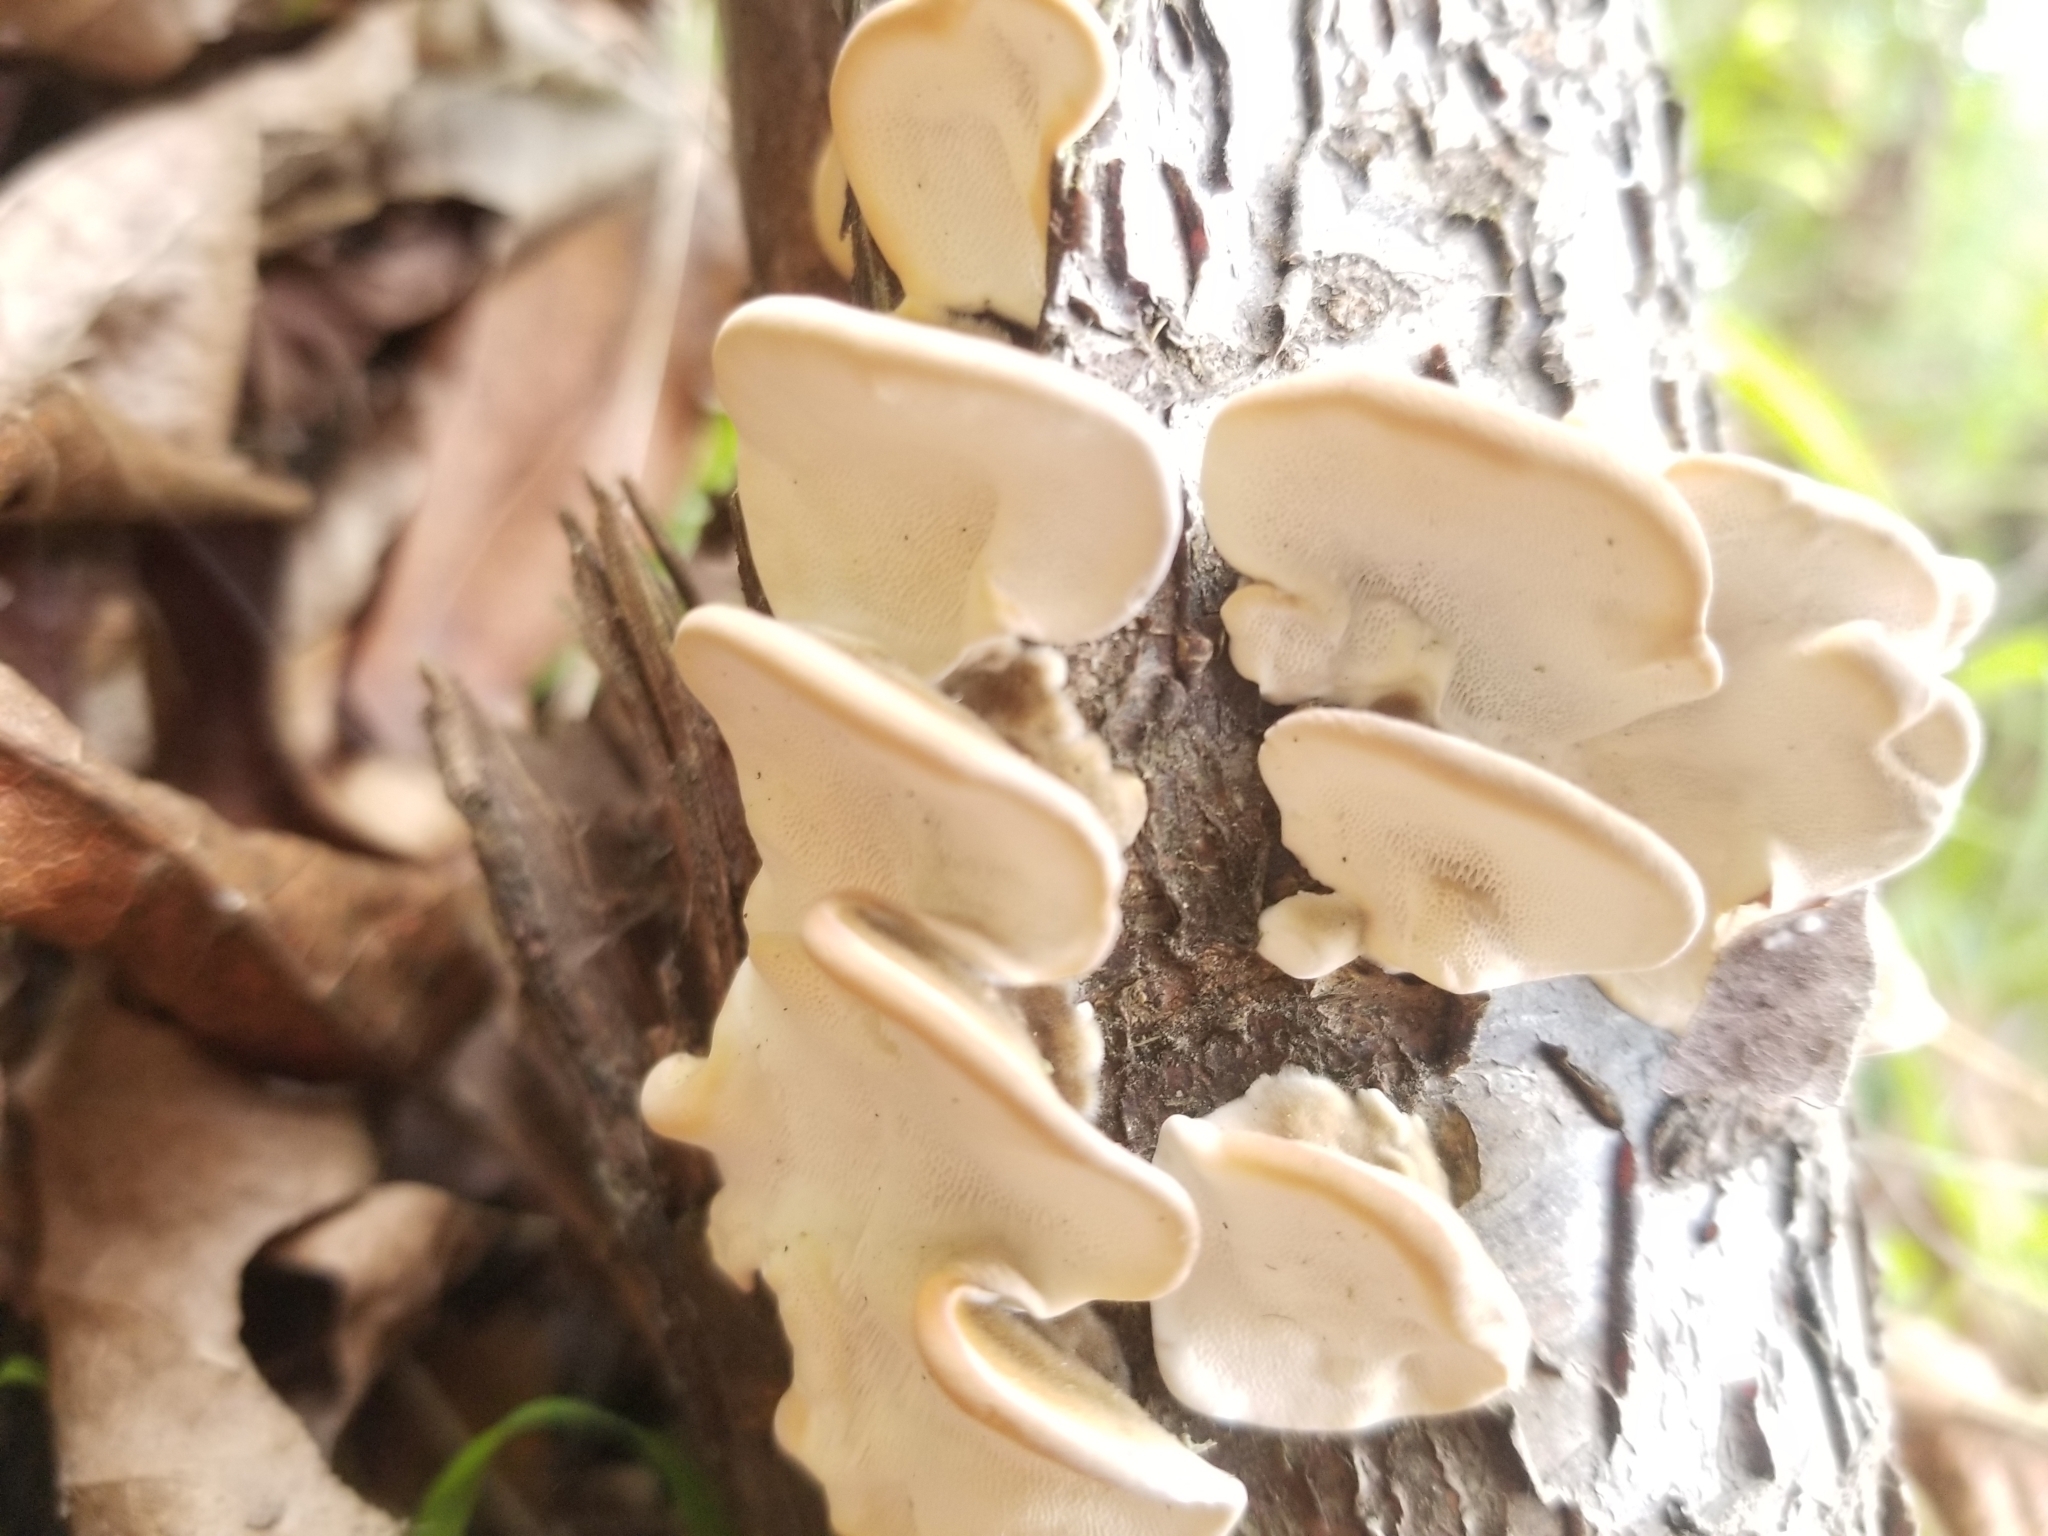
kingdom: Fungi
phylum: Basidiomycota
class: Agaricomycetes
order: Polyporales
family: Polyporaceae
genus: Trametes
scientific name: Trametes versicolor
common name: Turkeytail
